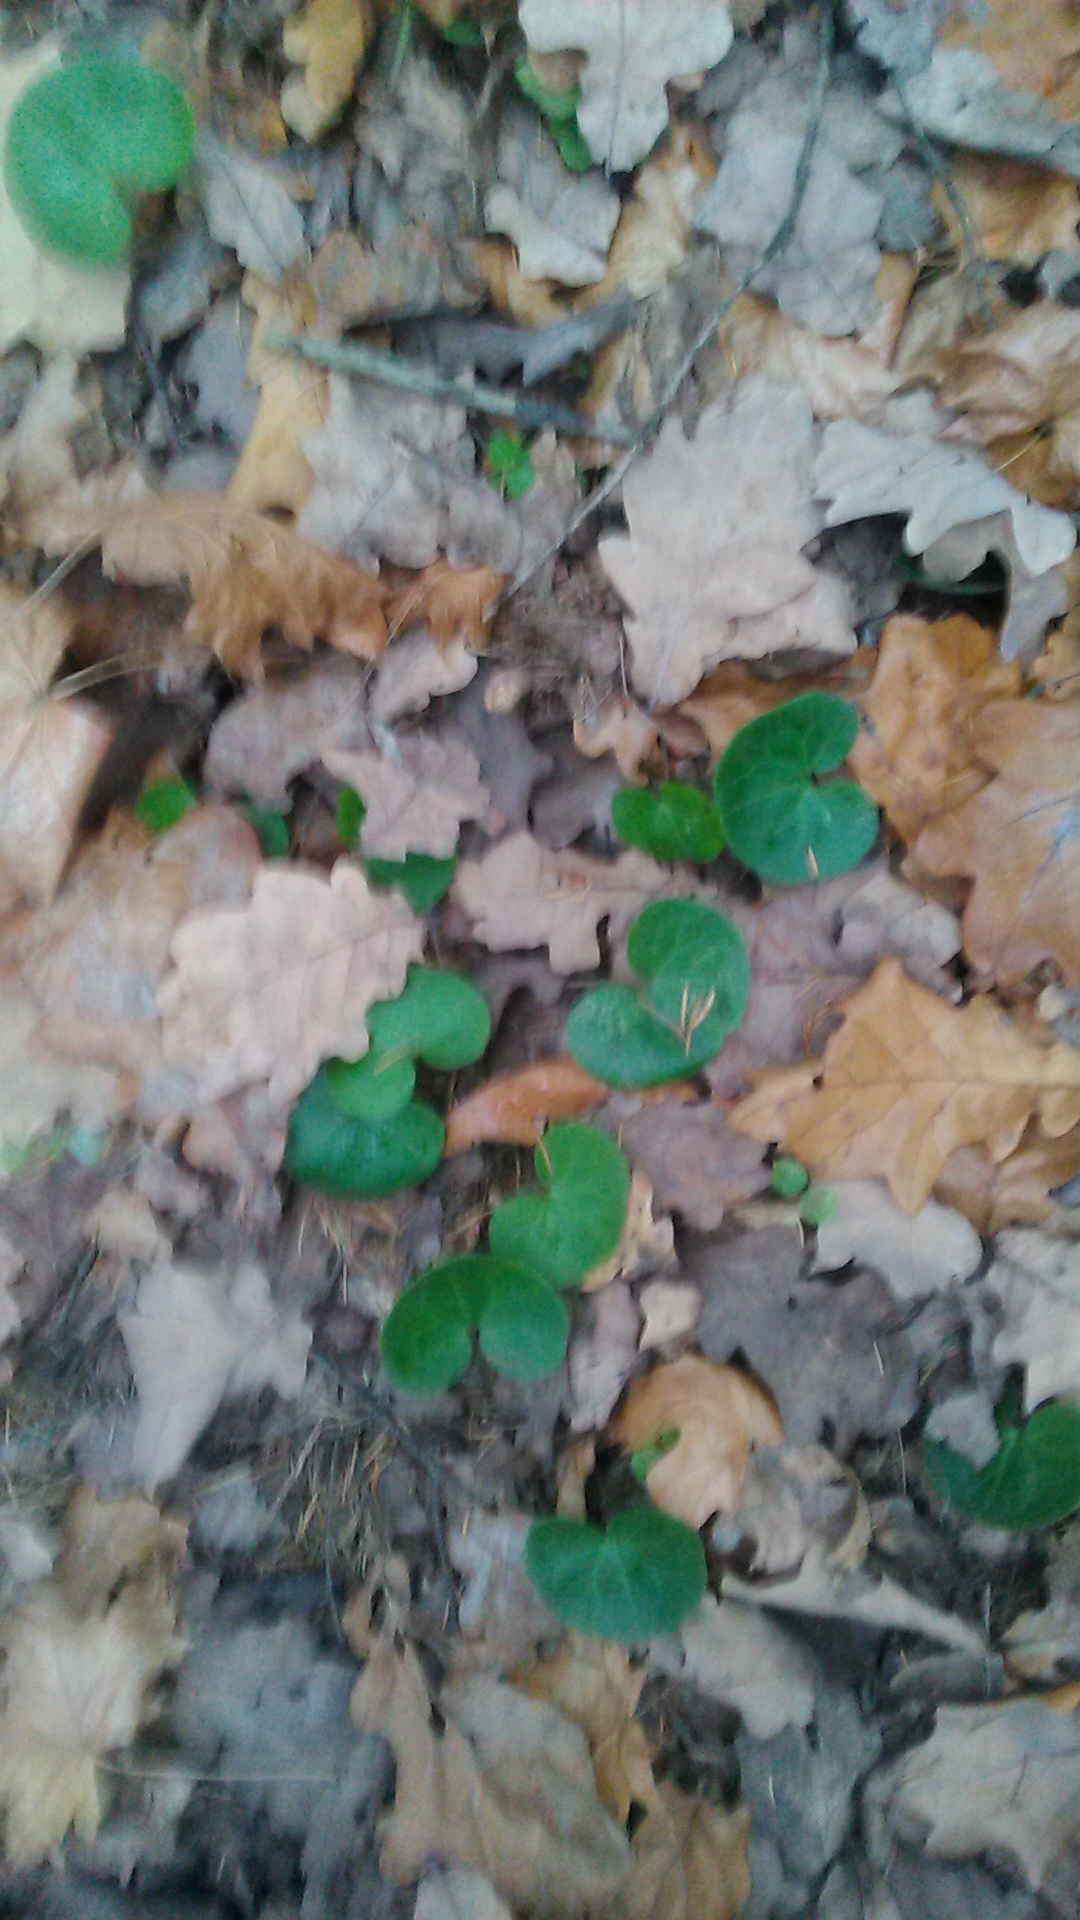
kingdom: Plantae
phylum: Tracheophyta
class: Magnoliopsida
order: Piperales
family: Aristolochiaceae
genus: Asarum
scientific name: Asarum europaeum
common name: Asarabacca
